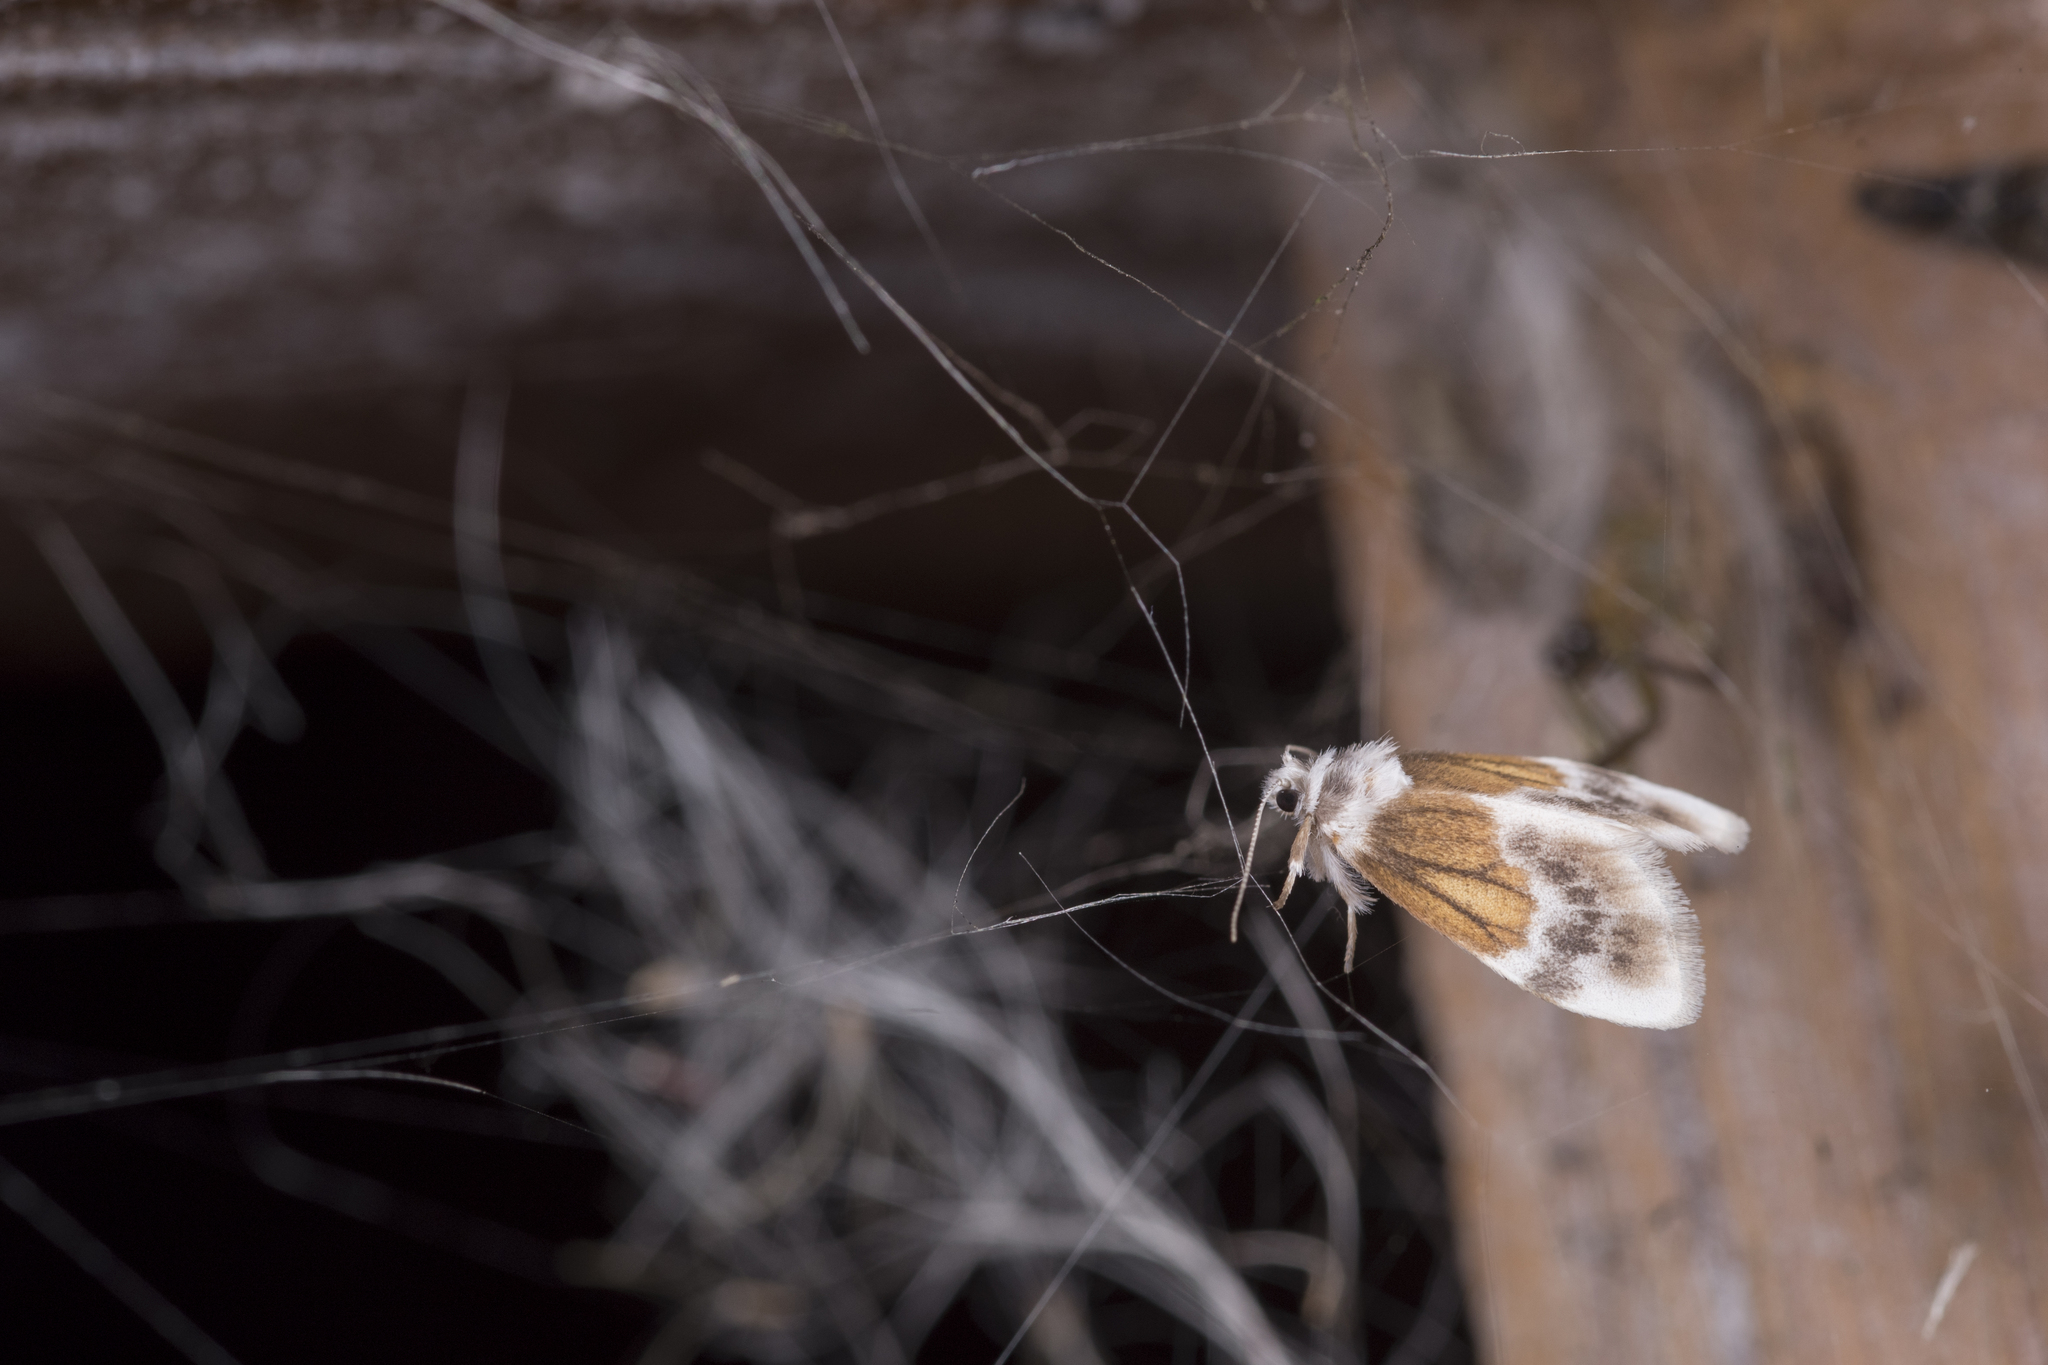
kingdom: Animalia
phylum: Arthropoda
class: Insecta
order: Lepidoptera
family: Erebidae
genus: Ovipennis
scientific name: Ovipennis semilutea
